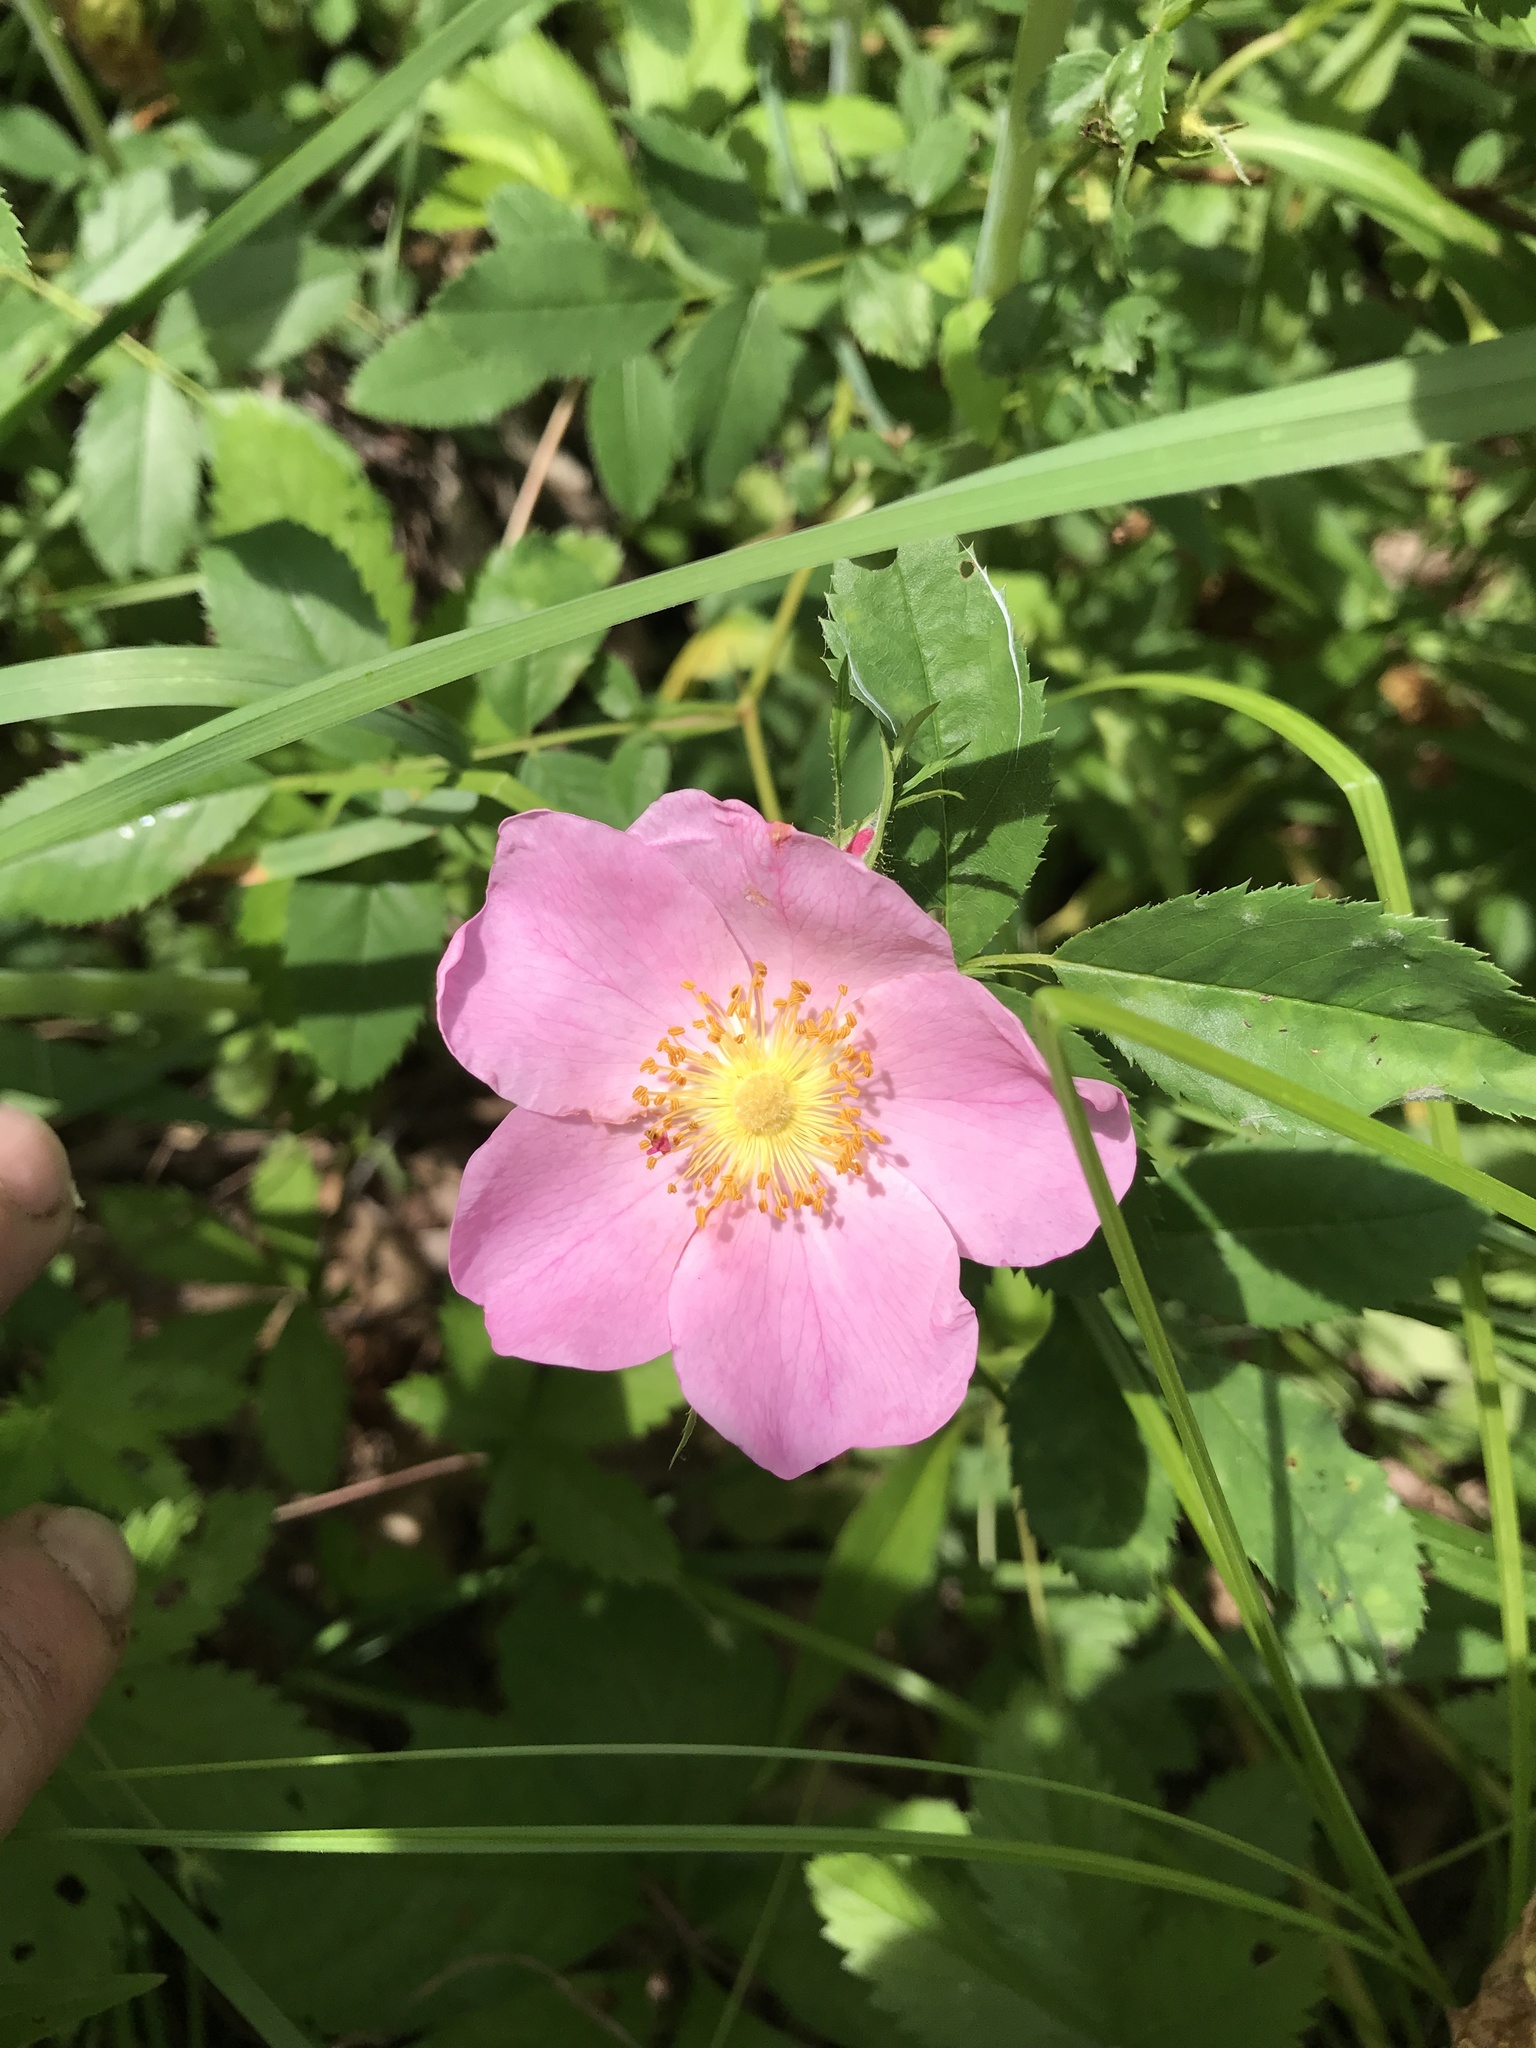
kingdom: Plantae
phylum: Tracheophyta
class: Magnoliopsida
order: Rosales
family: Rosaceae
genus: Rosa
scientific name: Rosa carolina
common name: Pasture rose
